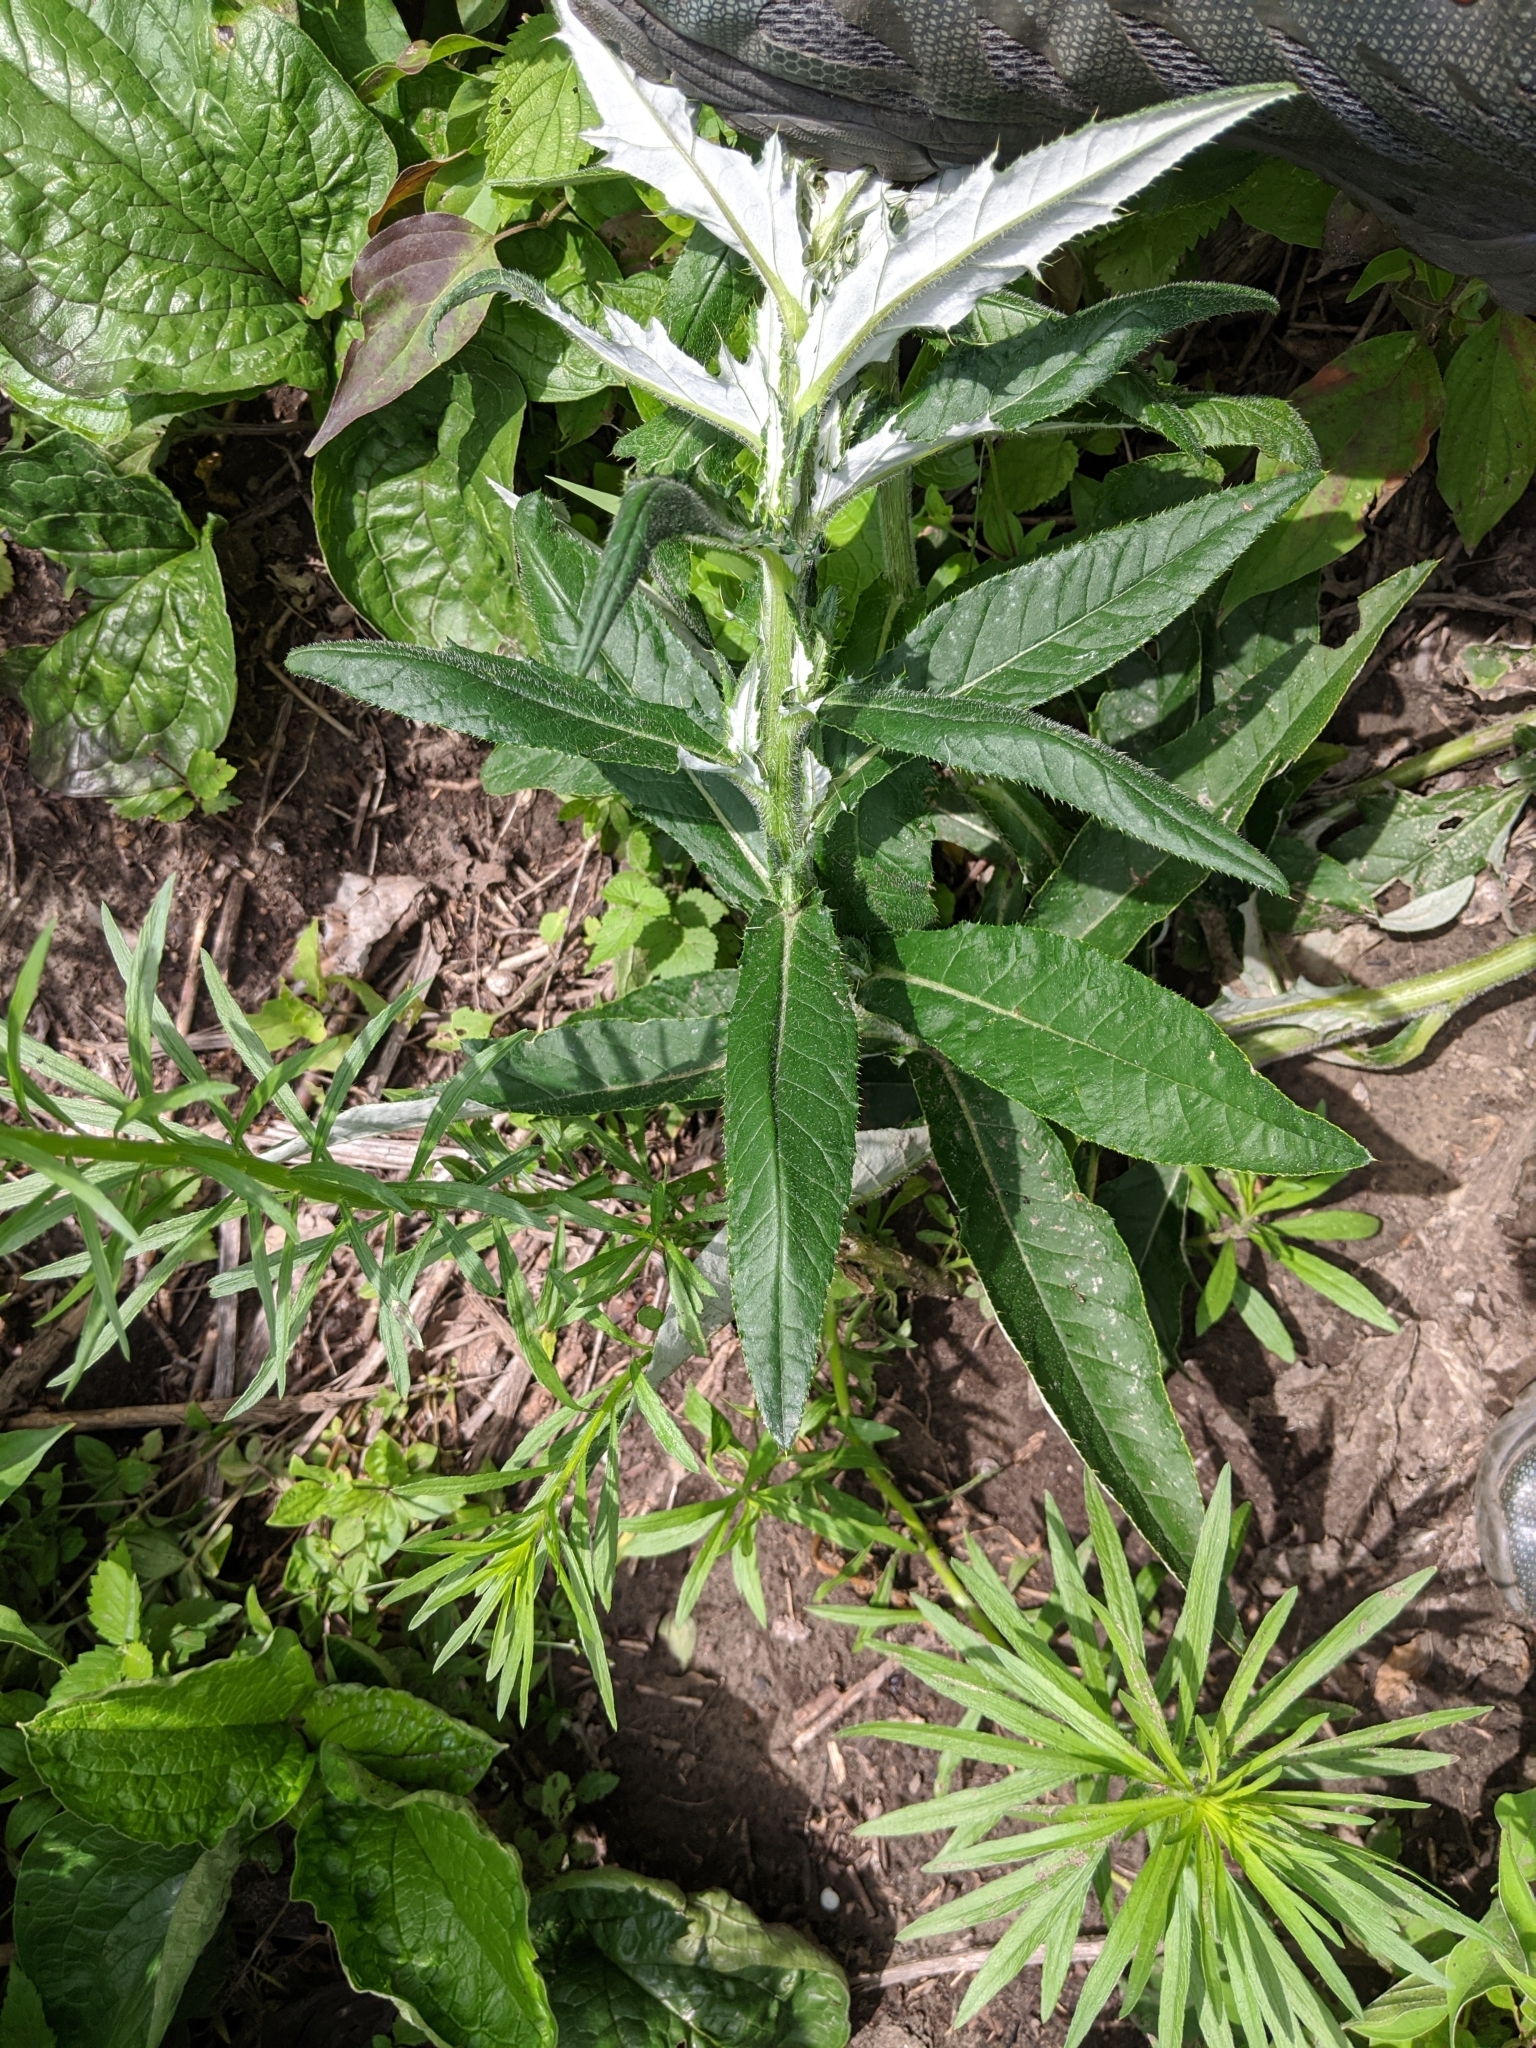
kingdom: Plantae
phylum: Tracheophyta
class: Magnoliopsida
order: Asterales
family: Asteraceae
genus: Cirsium
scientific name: Cirsium altissimum
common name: Roadside thistle
